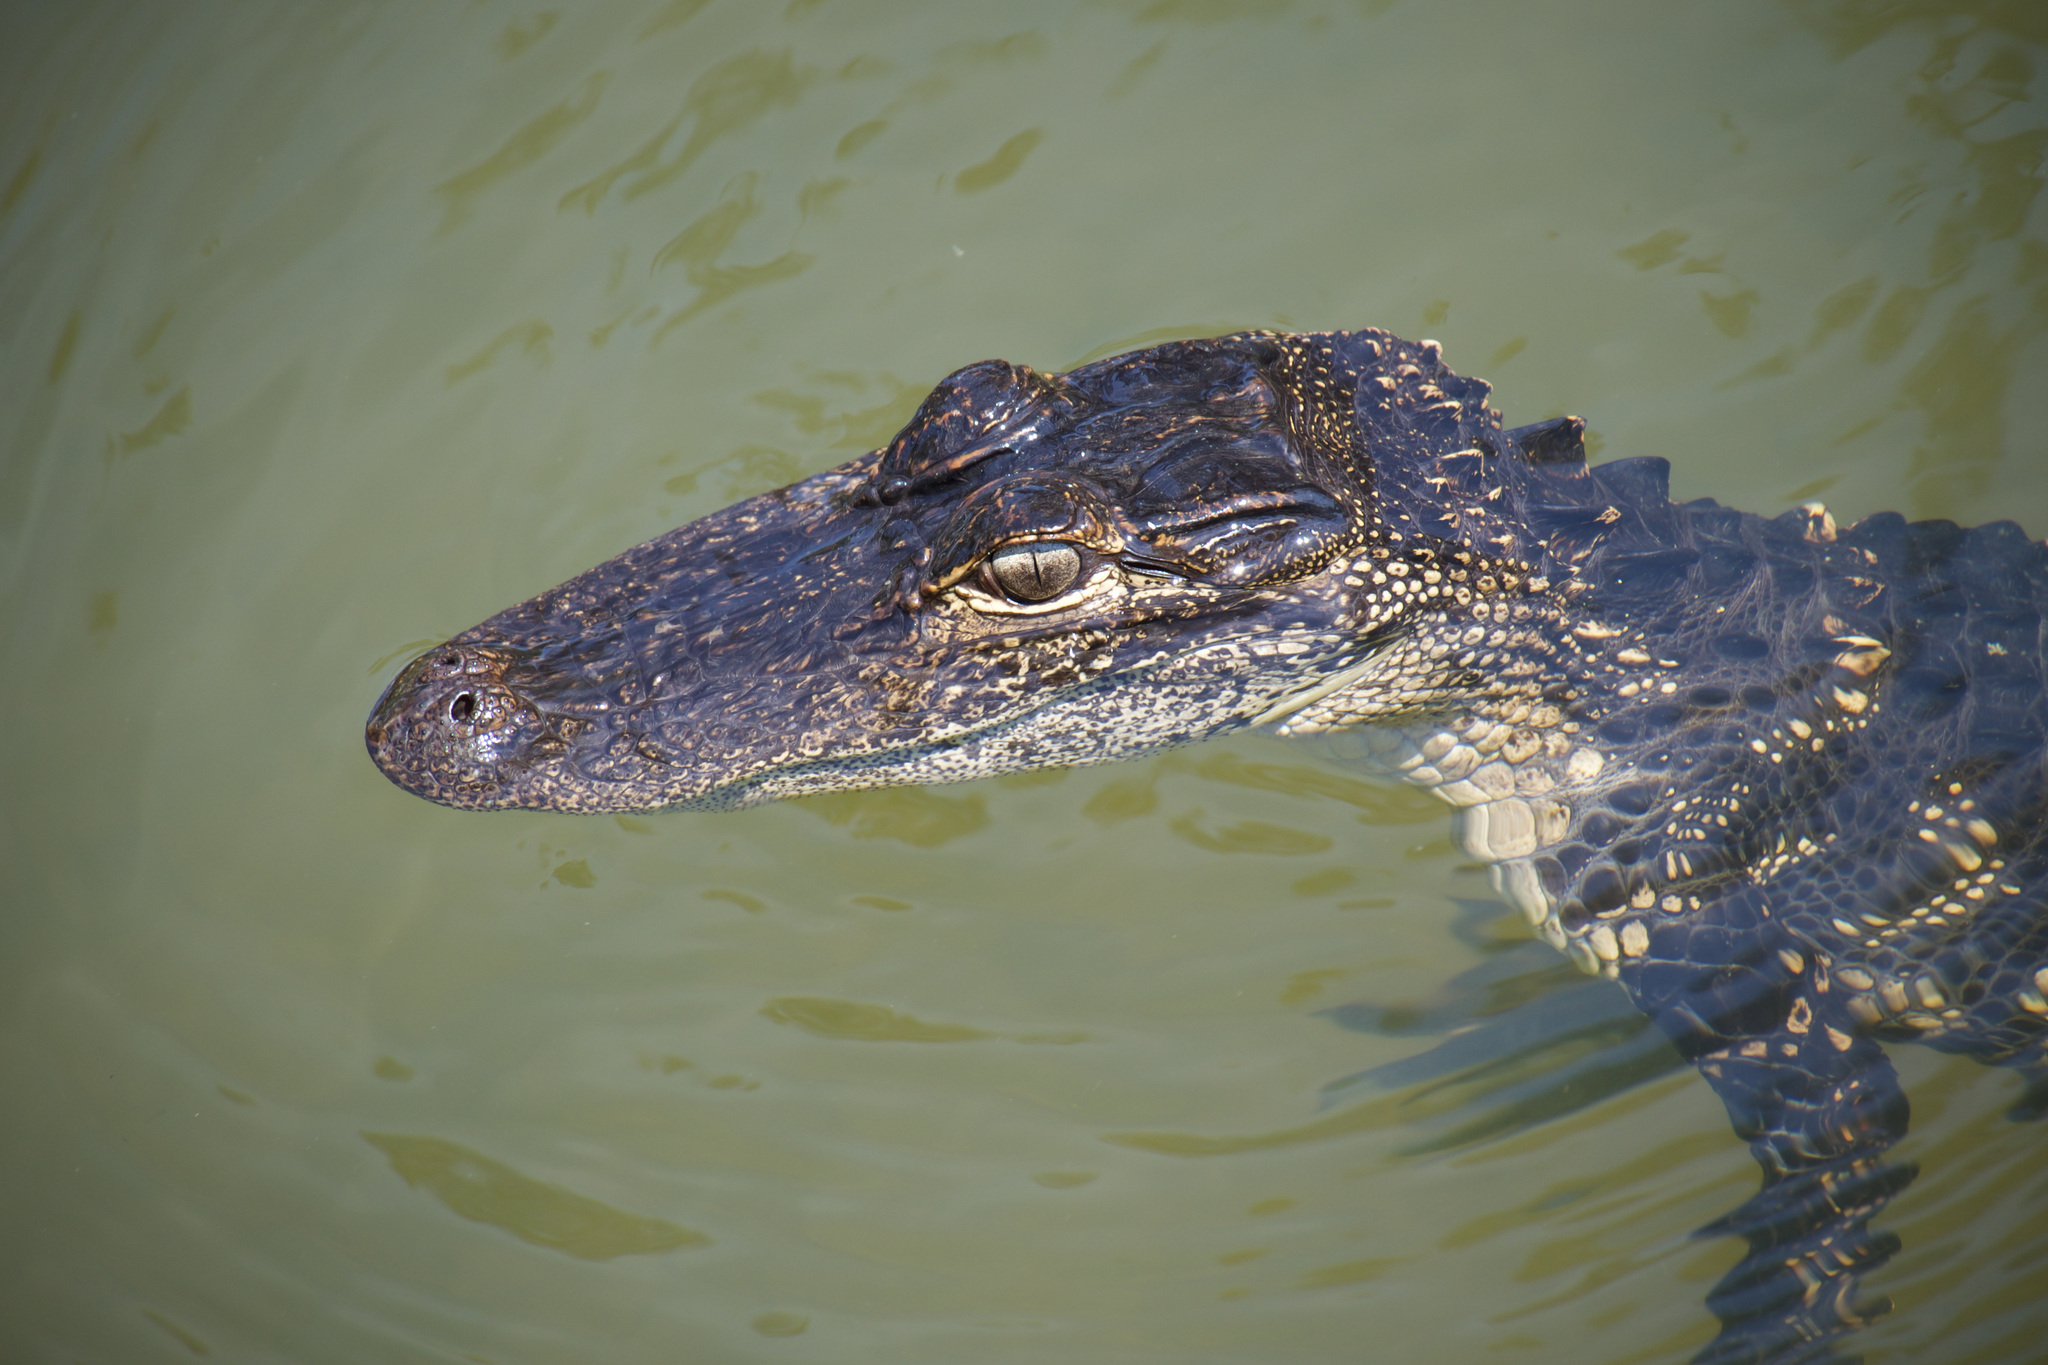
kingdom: Animalia
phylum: Chordata
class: Crocodylia
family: Alligatoridae
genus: Alligator
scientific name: Alligator mississippiensis
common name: American alligator
